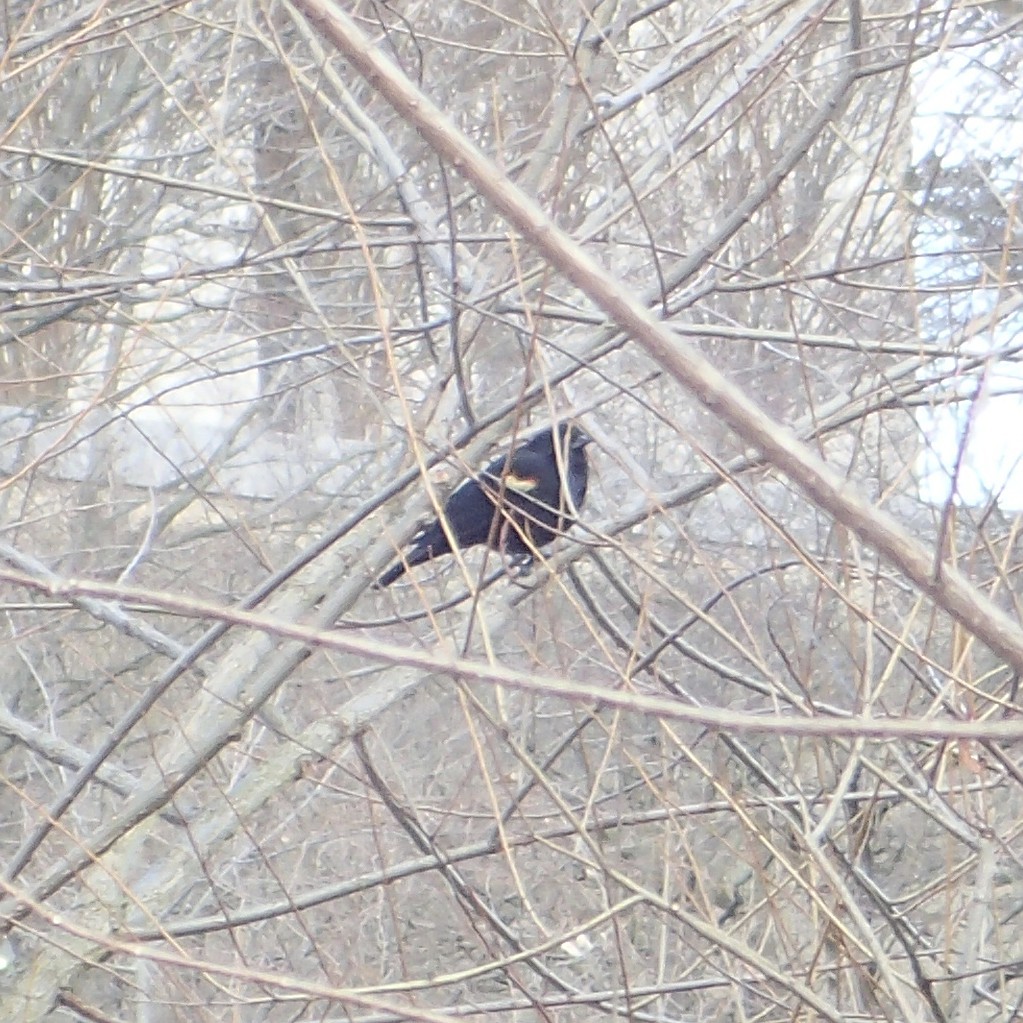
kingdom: Animalia
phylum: Chordata
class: Aves
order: Passeriformes
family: Icteridae
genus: Agelaius
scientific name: Agelaius phoeniceus
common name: Red-winged blackbird
